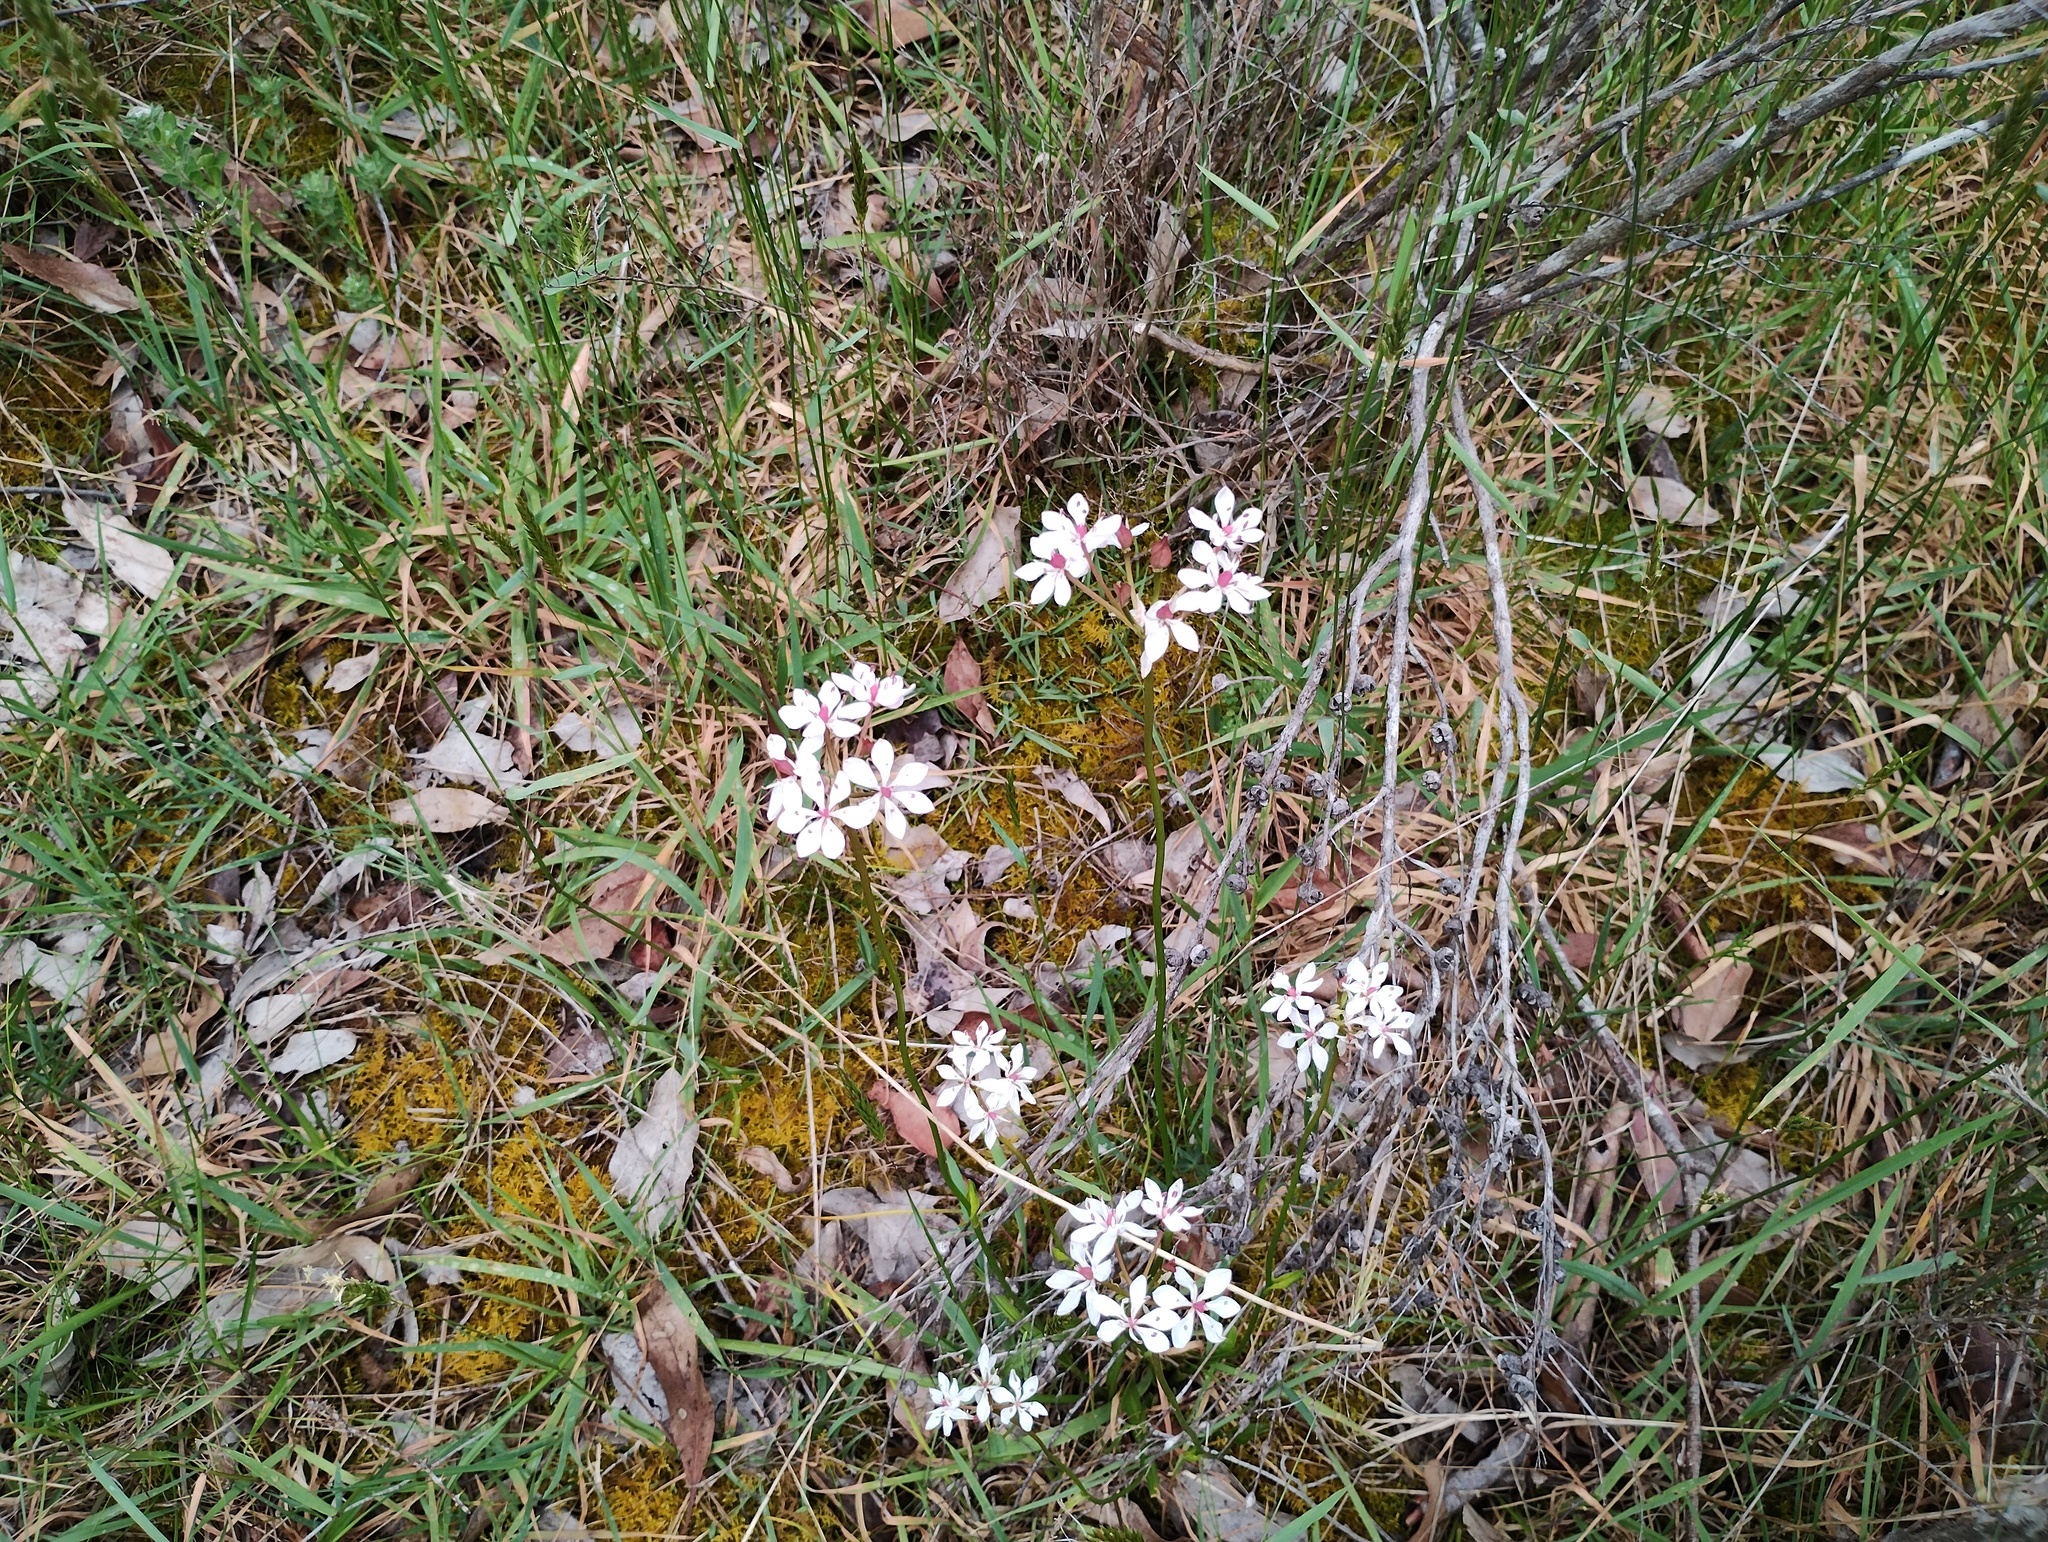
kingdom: Plantae
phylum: Tracheophyta
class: Liliopsida
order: Liliales
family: Colchicaceae
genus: Burchardia
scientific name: Burchardia umbellata
